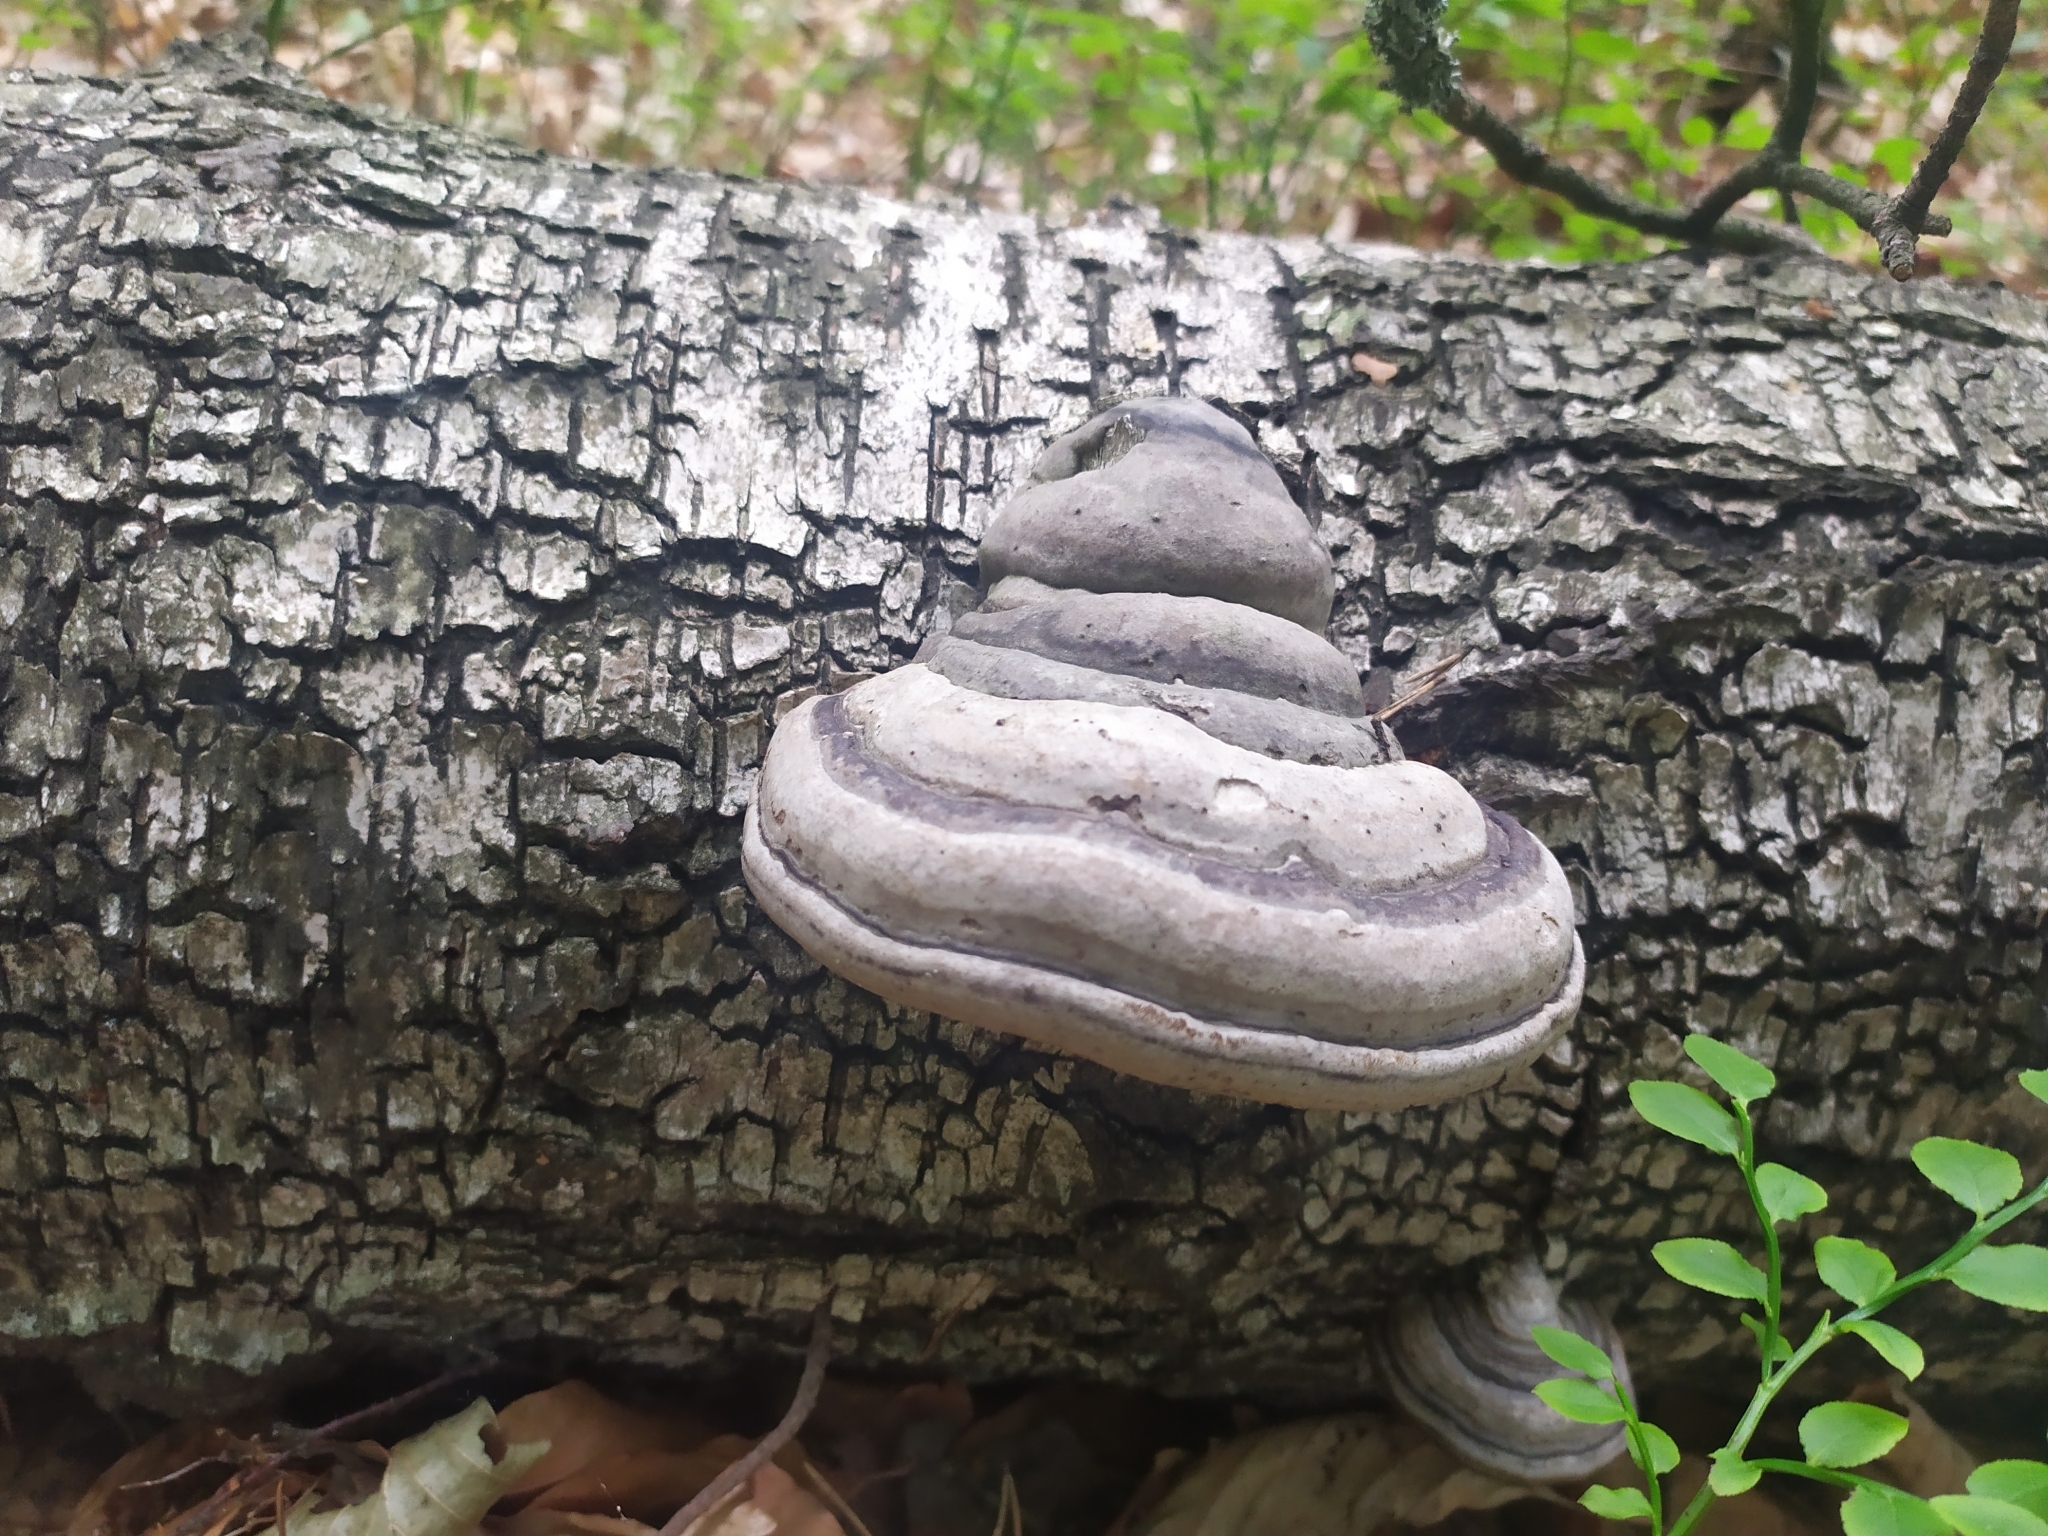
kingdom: Fungi
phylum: Basidiomycota
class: Agaricomycetes
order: Polyporales
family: Polyporaceae
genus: Fomes
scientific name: Fomes fomentarius
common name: Hoof fungus
